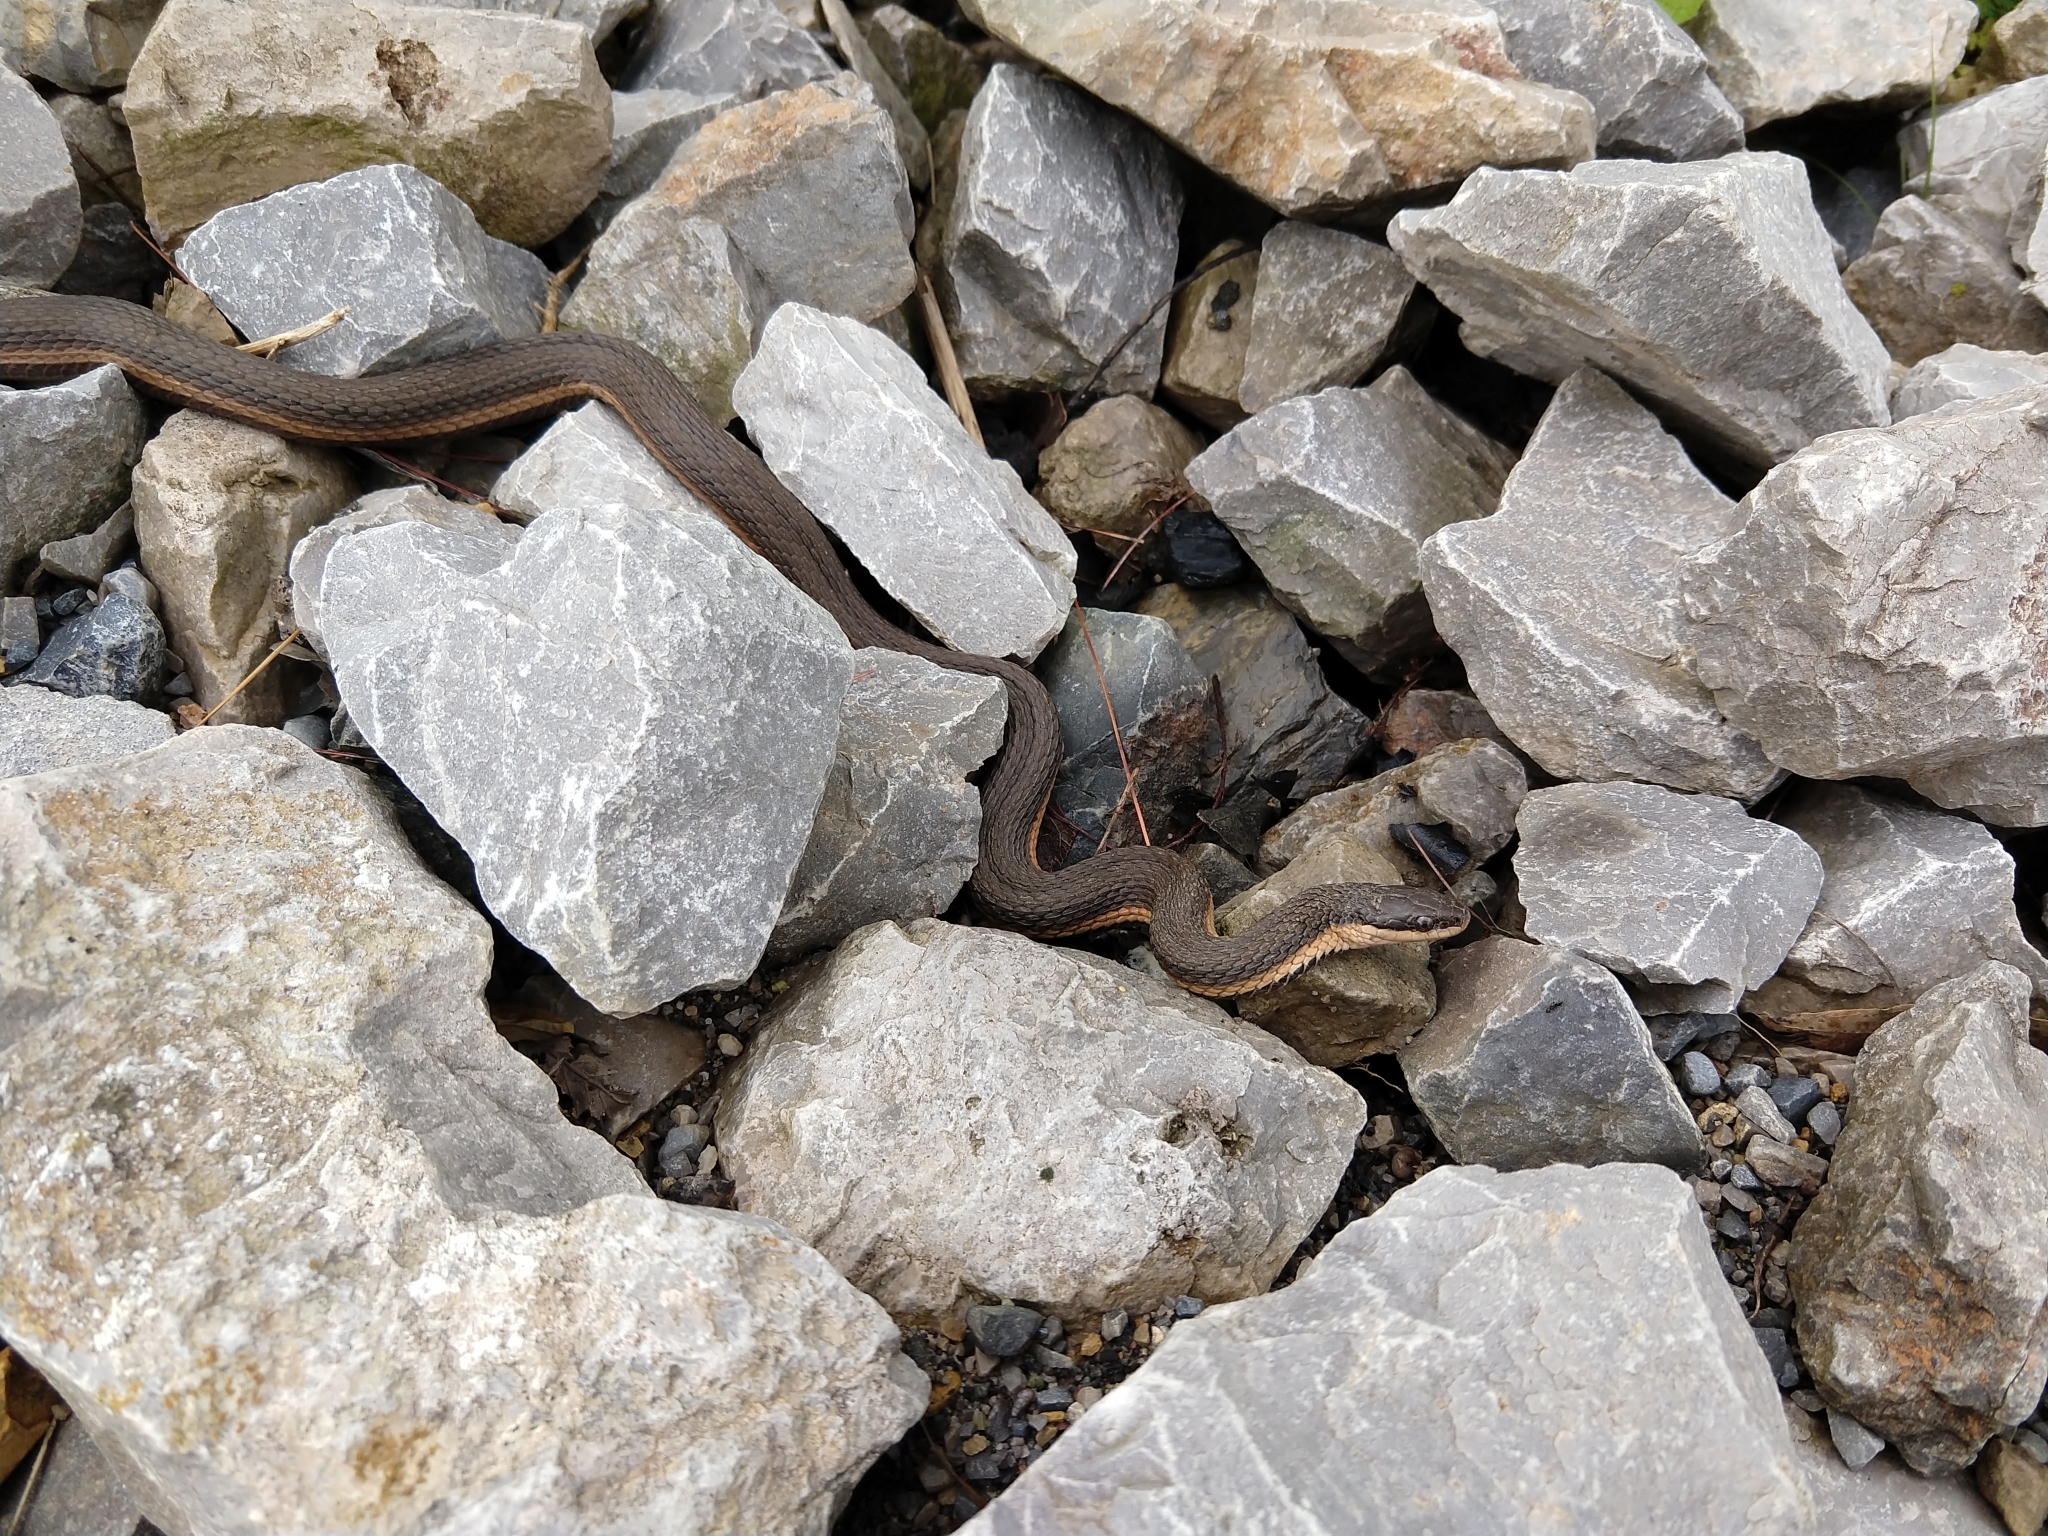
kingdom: Animalia
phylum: Chordata
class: Squamata
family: Colubridae
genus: Regina
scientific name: Regina septemvittata
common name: Queen snake
